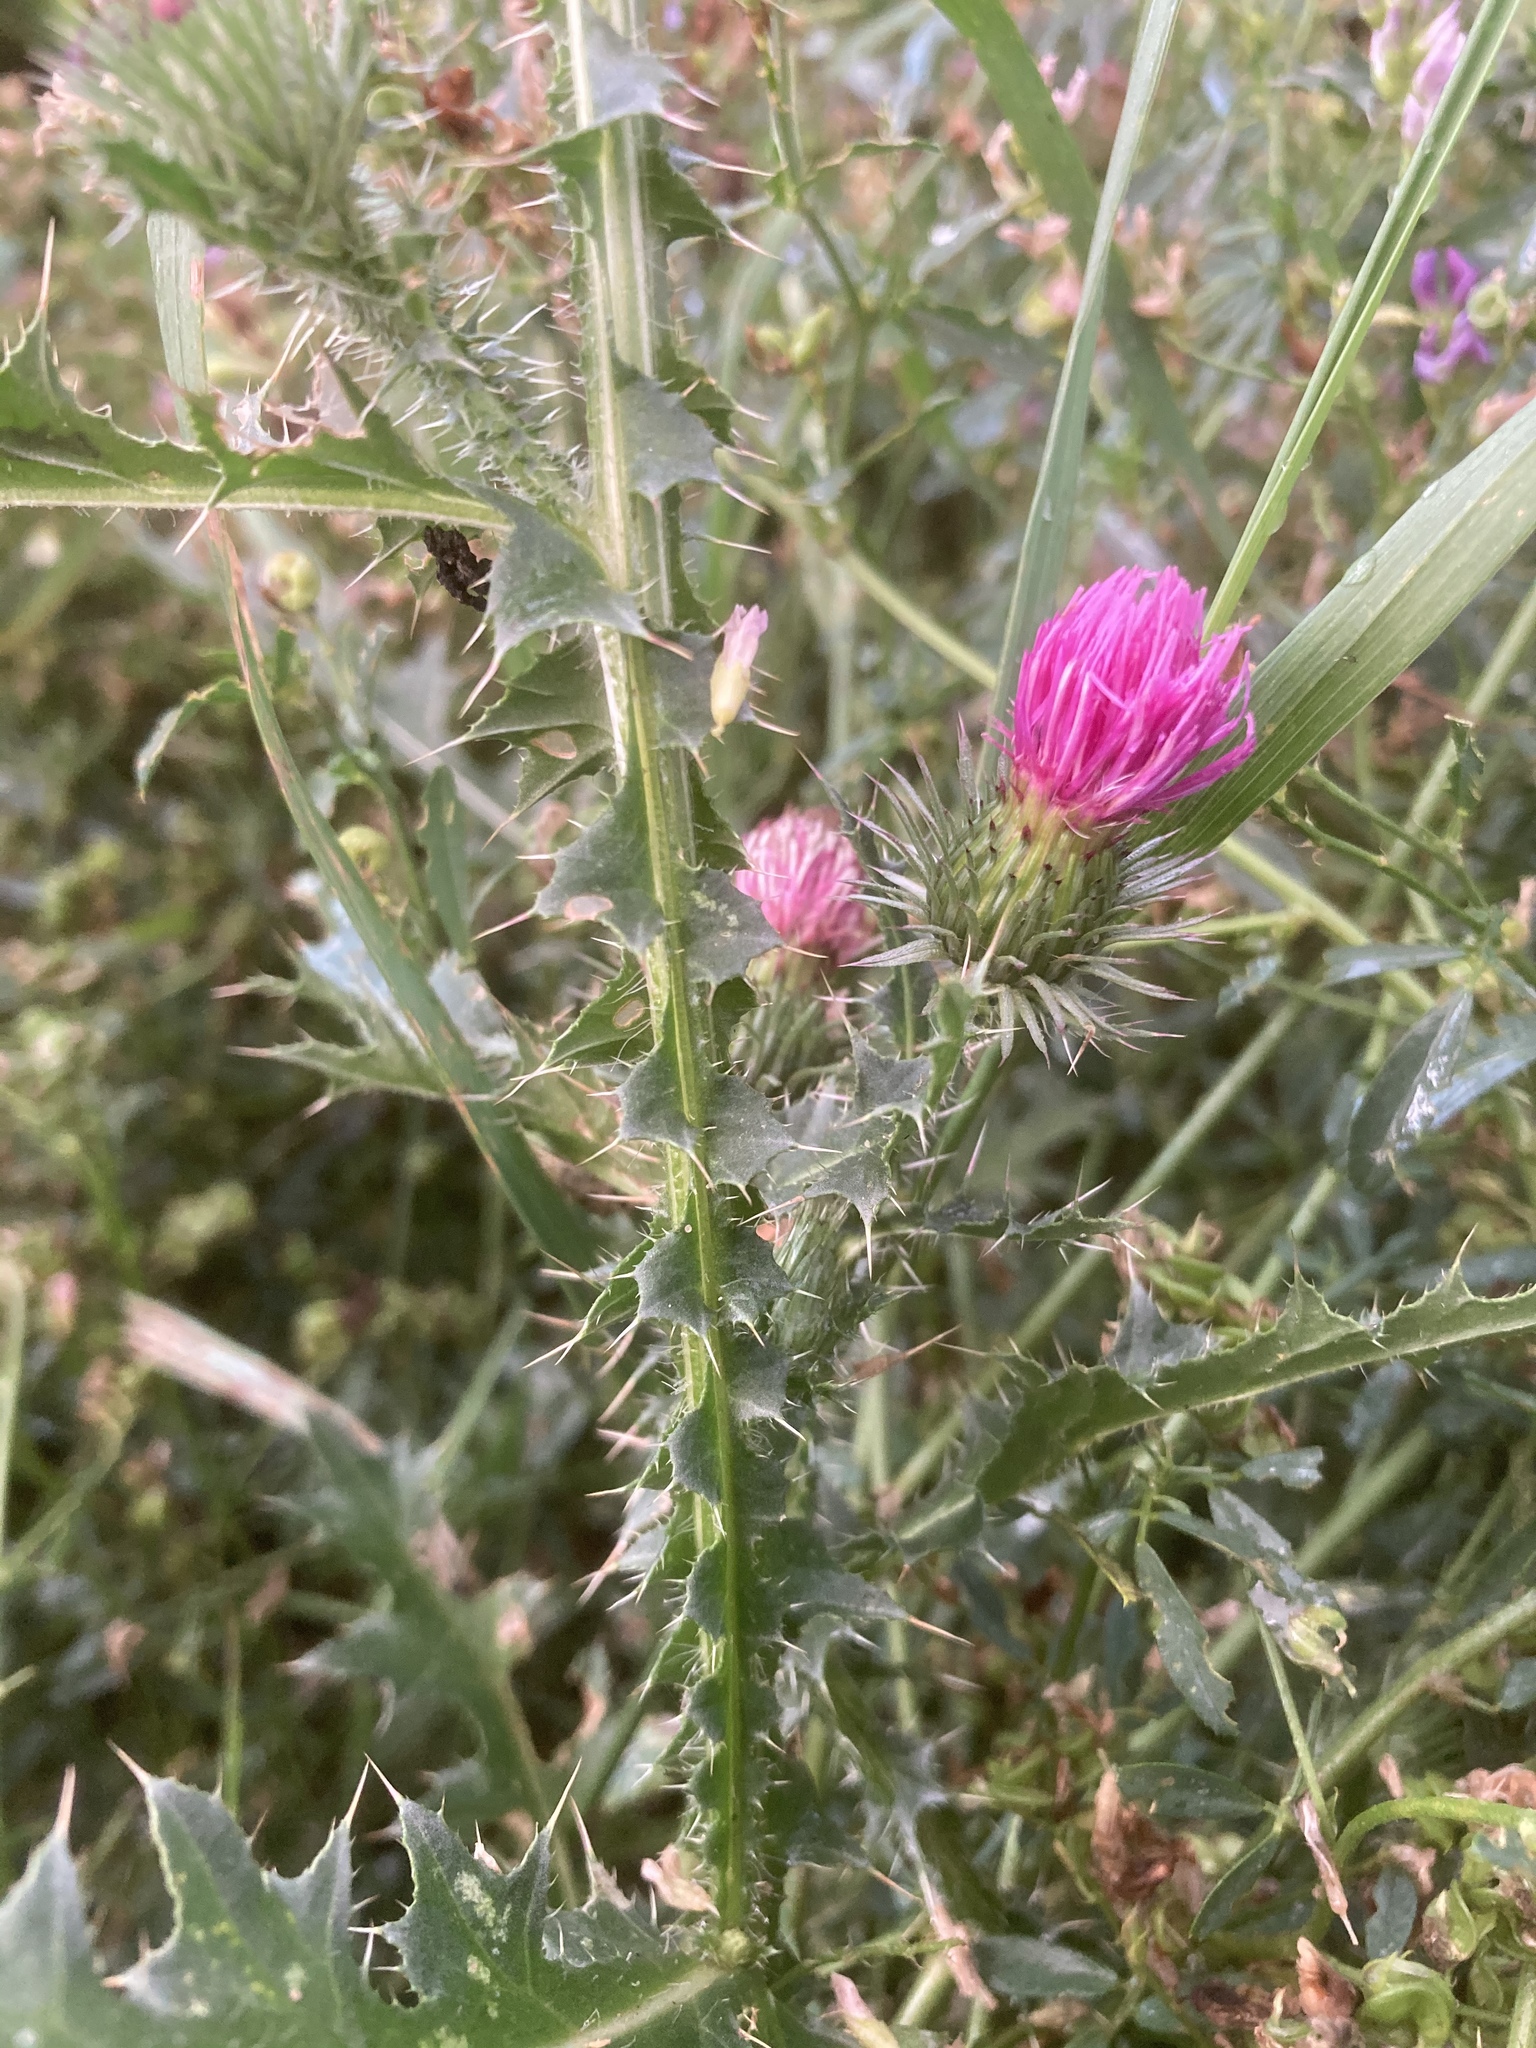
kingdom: Plantae
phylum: Tracheophyta
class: Magnoliopsida
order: Asterales
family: Asteraceae
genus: Carduus
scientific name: Carduus acanthoides
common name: Plumeless thistle
